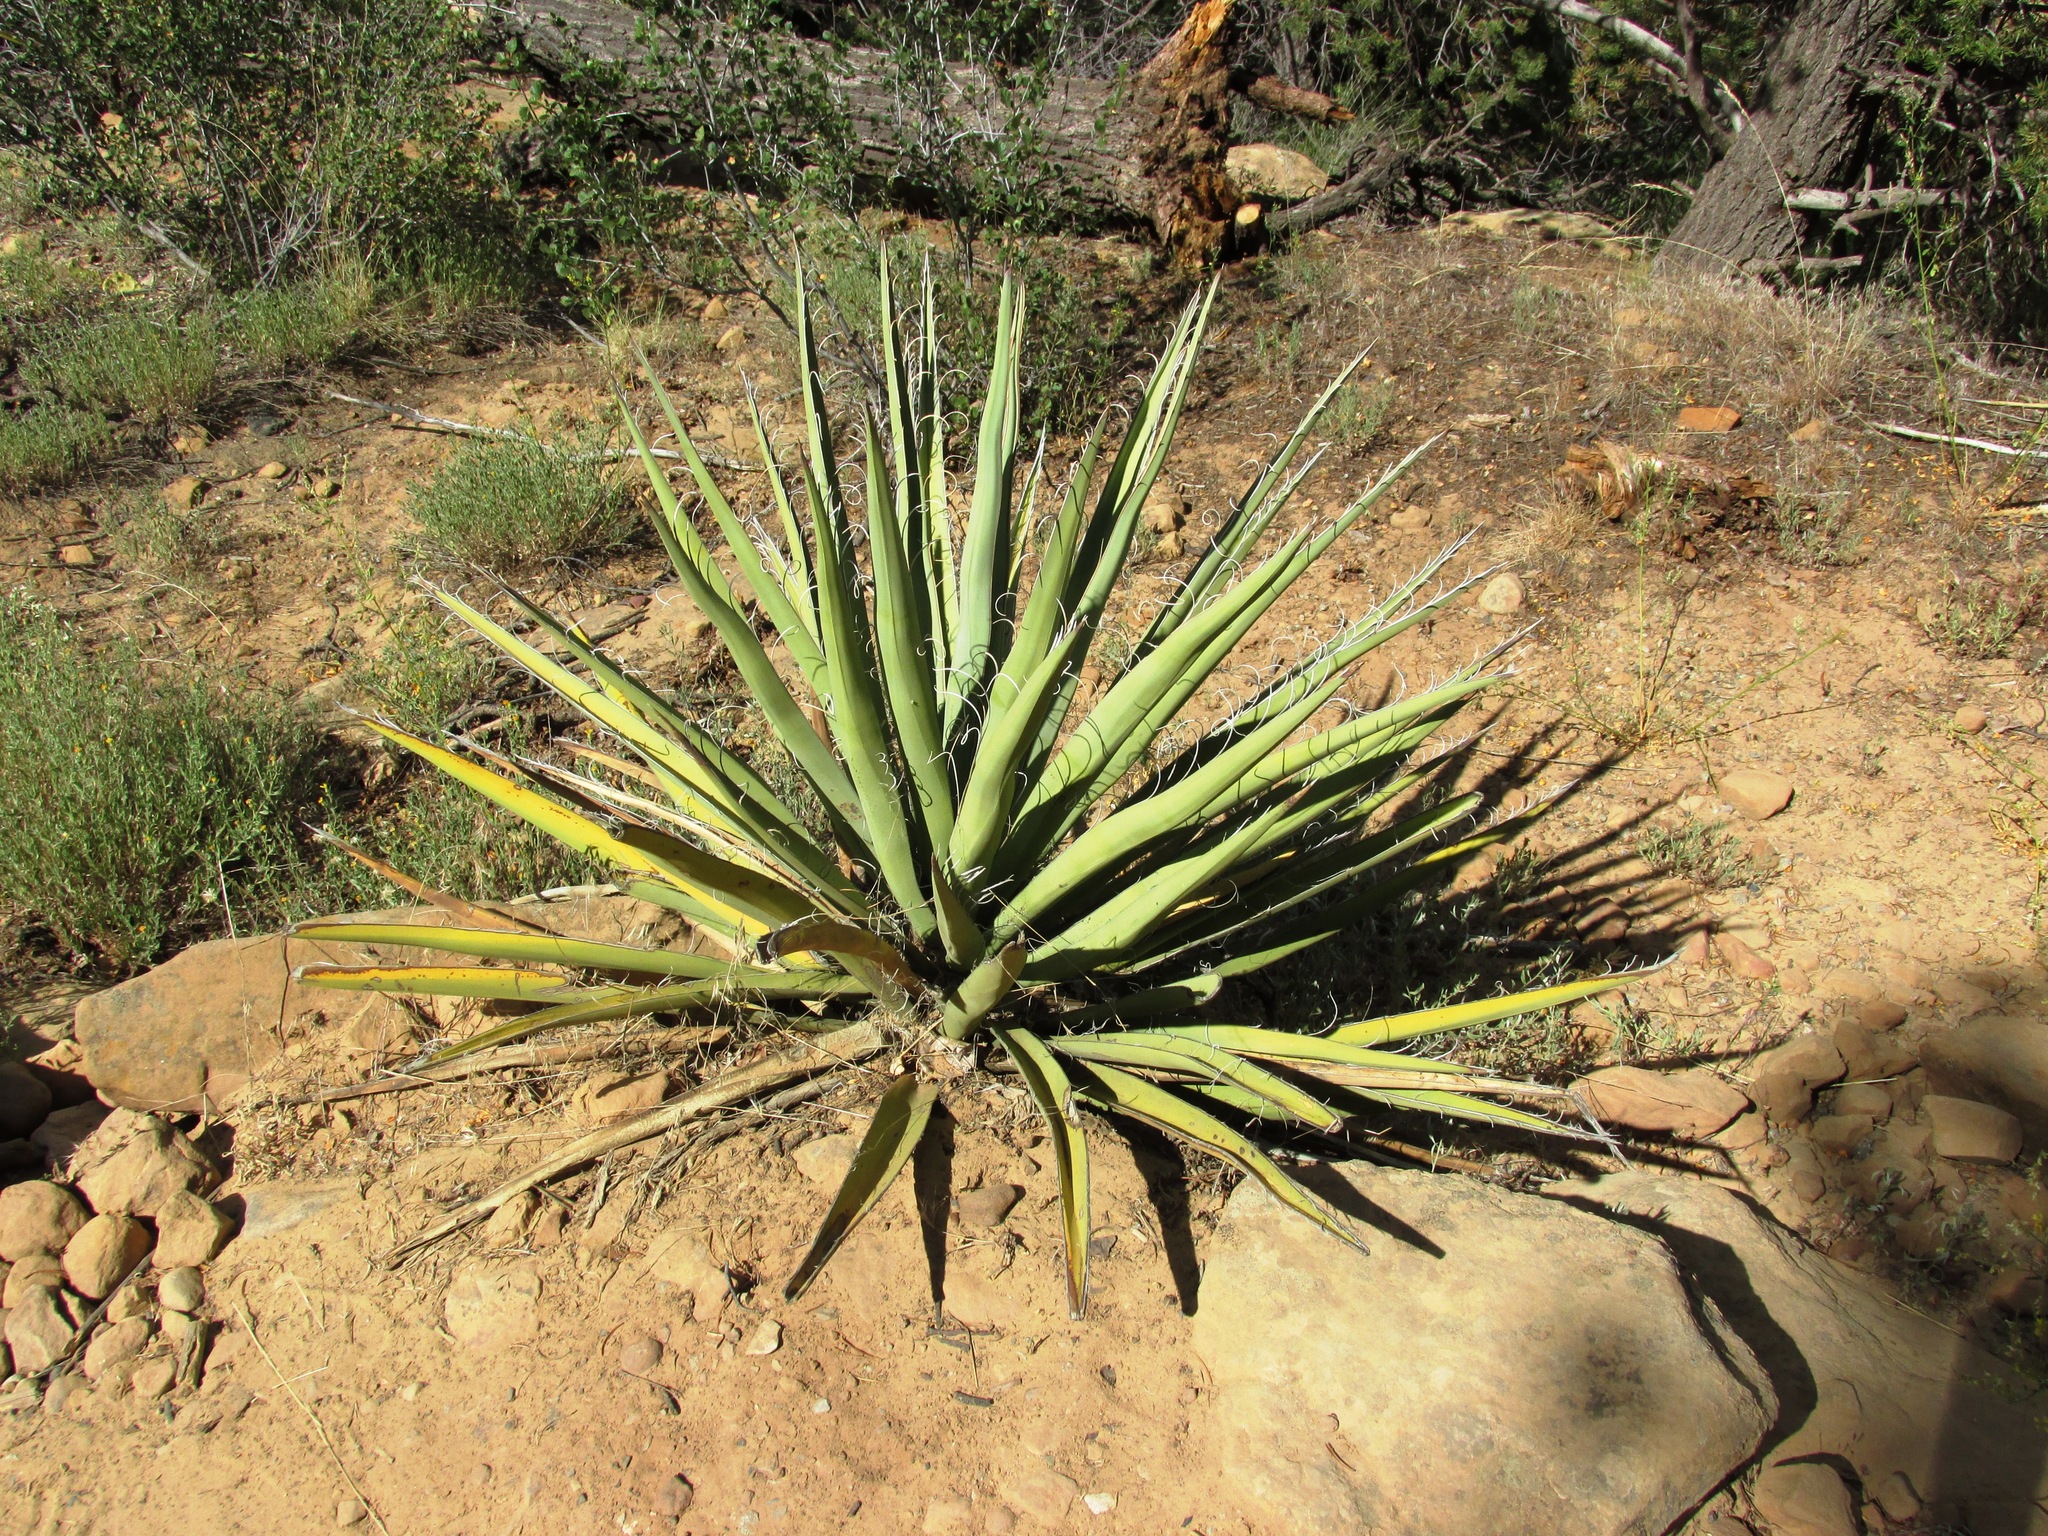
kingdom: Plantae
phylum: Tracheophyta
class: Liliopsida
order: Asparagales
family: Asparagaceae
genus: Yucca
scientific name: Yucca baccata
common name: Banana yucca
